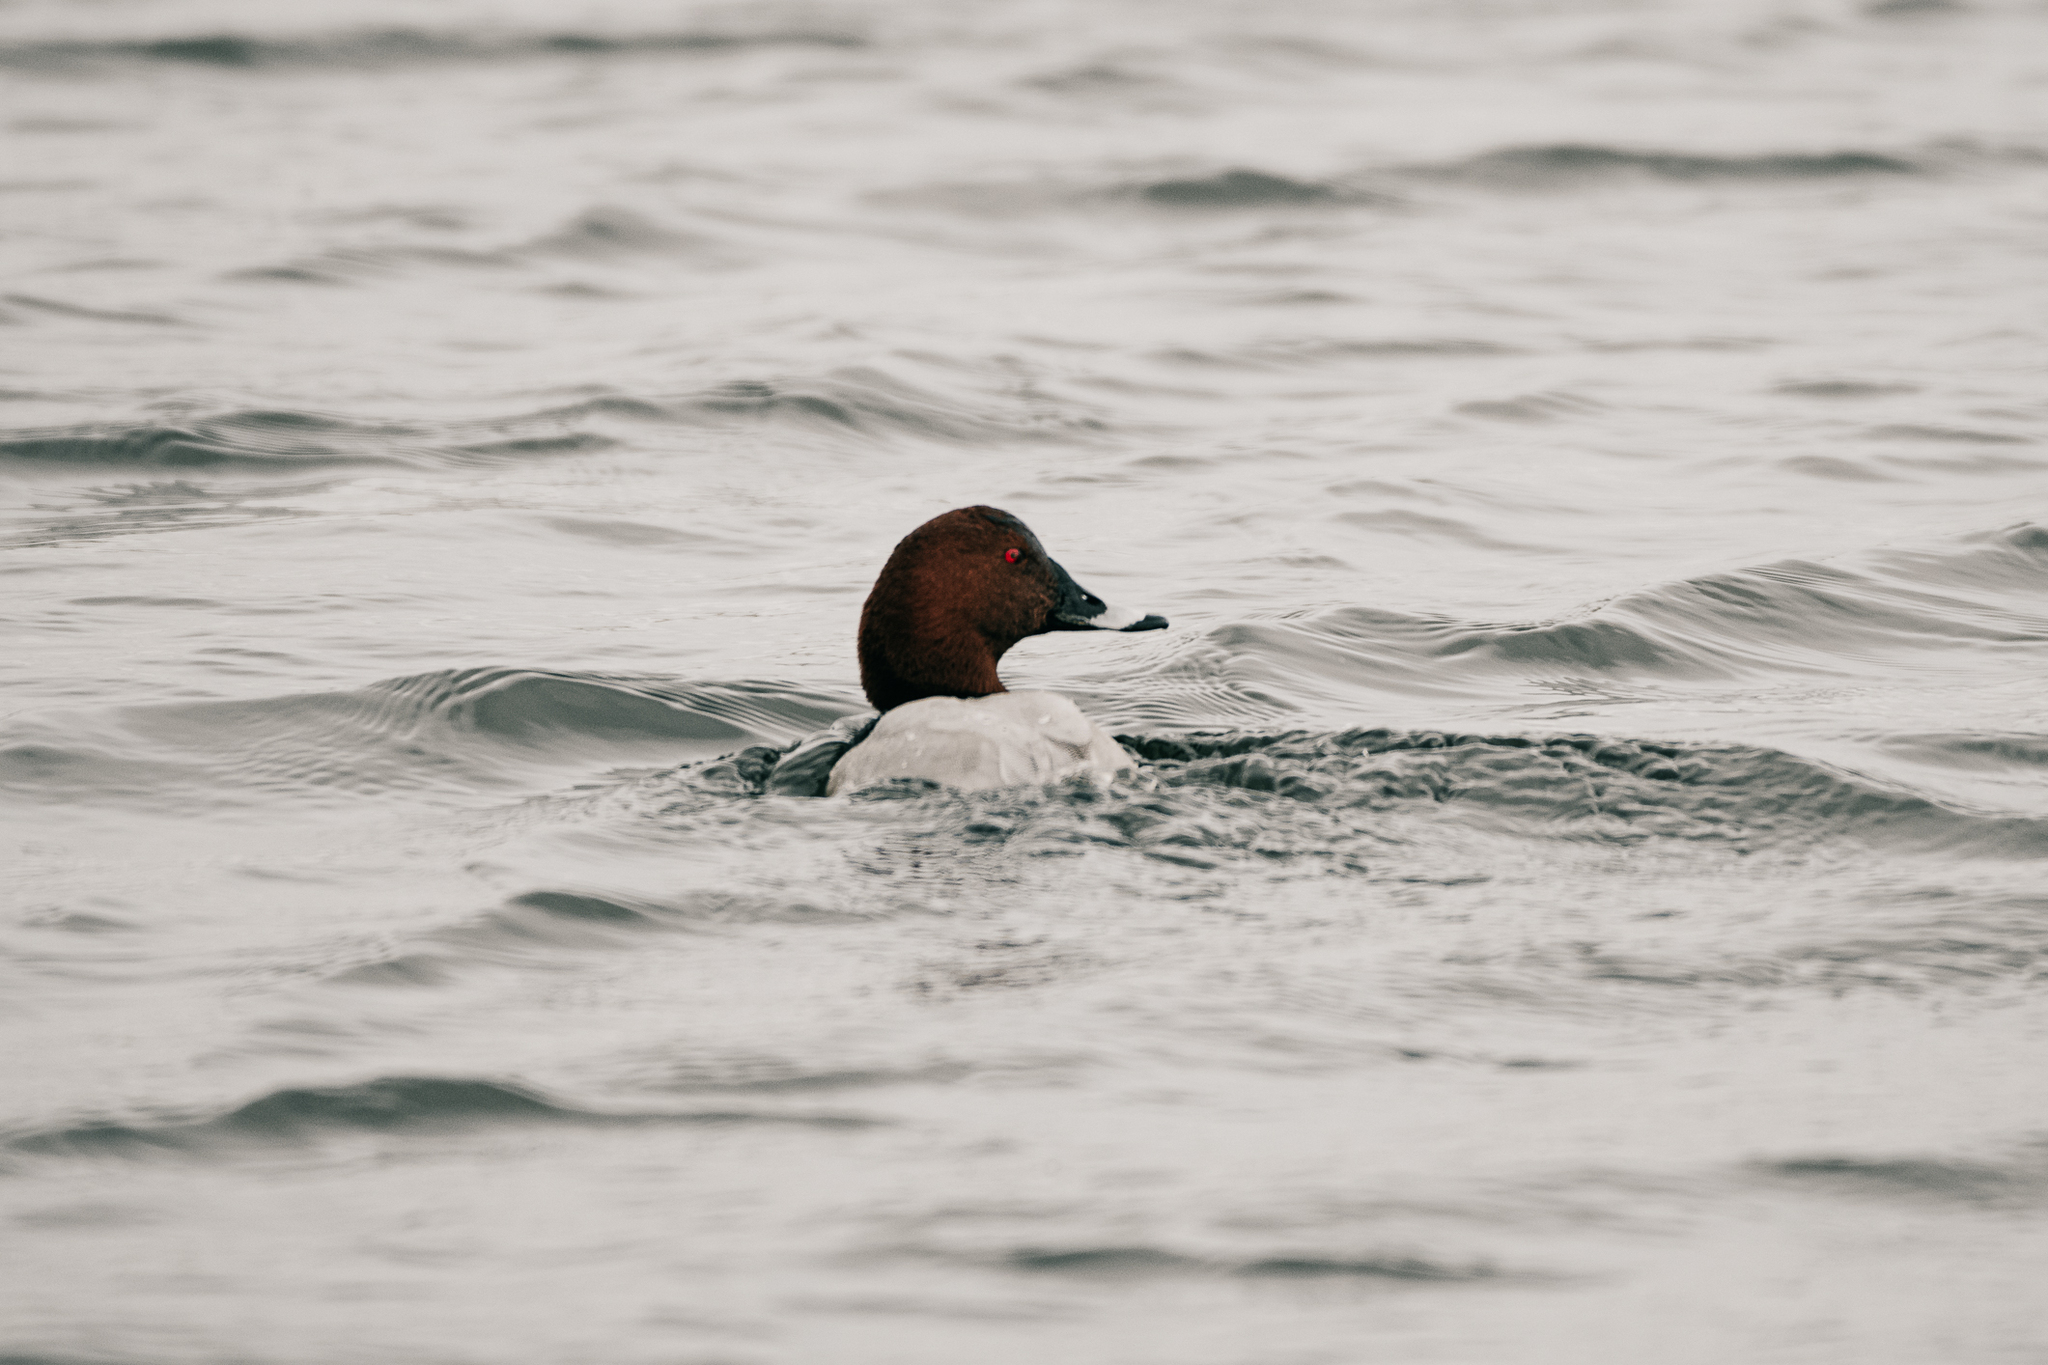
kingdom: Animalia
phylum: Chordata
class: Aves
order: Anseriformes
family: Anatidae
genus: Aythya
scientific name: Aythya ferina
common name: Common pochard
